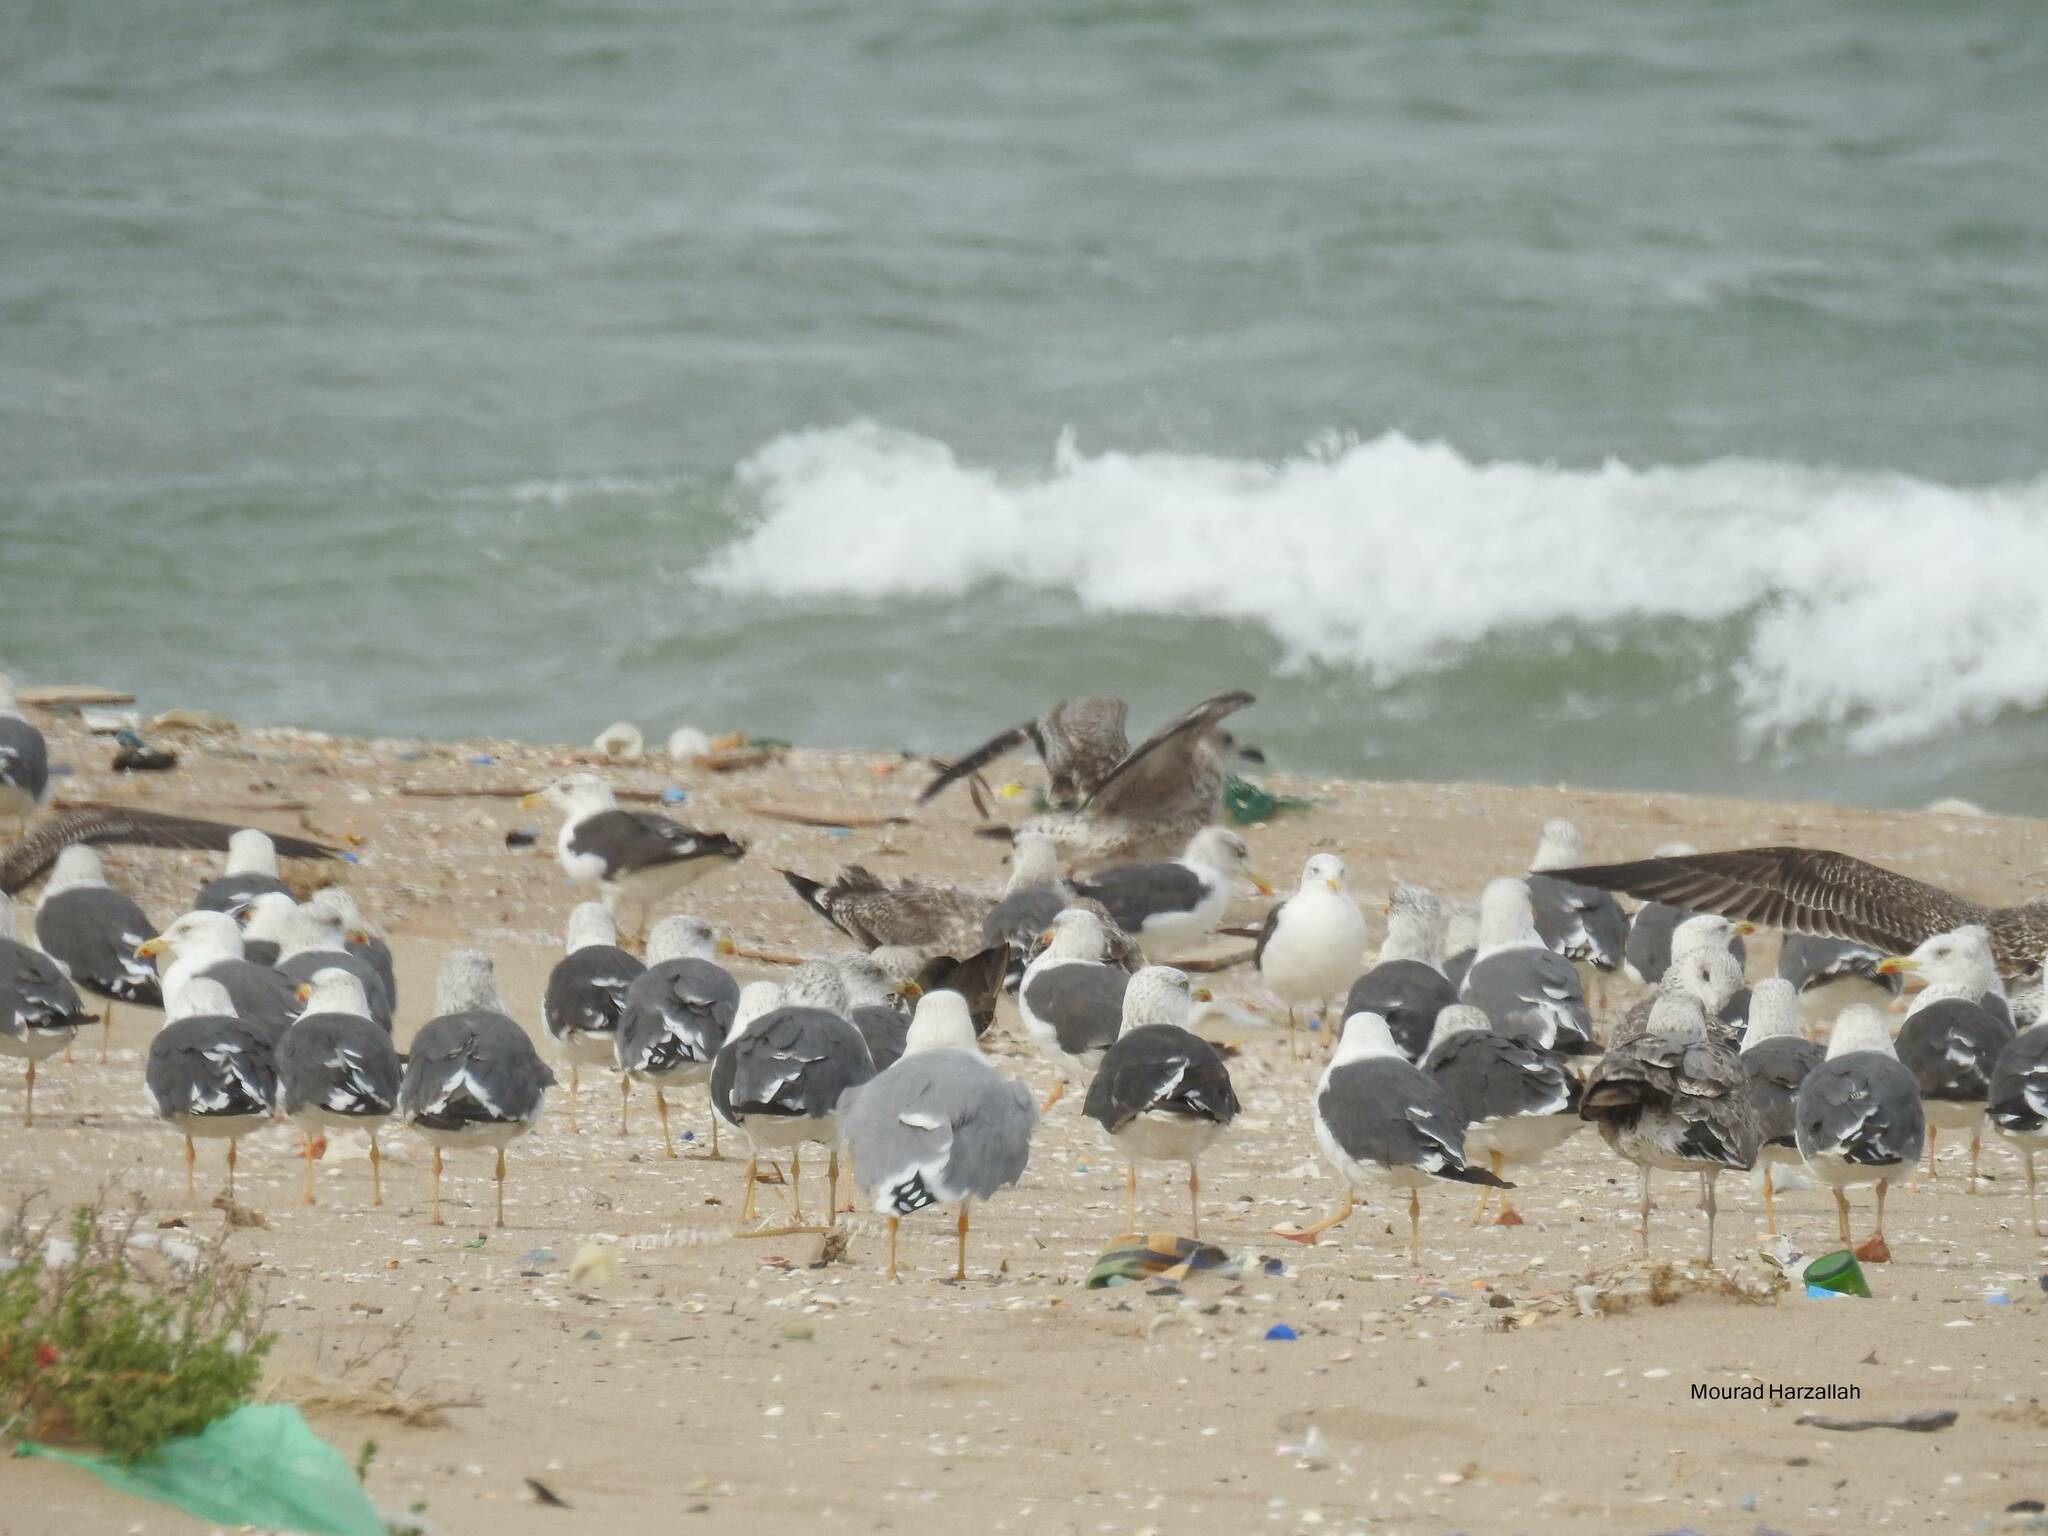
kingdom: Animalia
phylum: Chordata
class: Aves
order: Charadriiformes
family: Laridae
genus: Larus
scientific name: Larus fuscus
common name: Lesser black-backed gull
